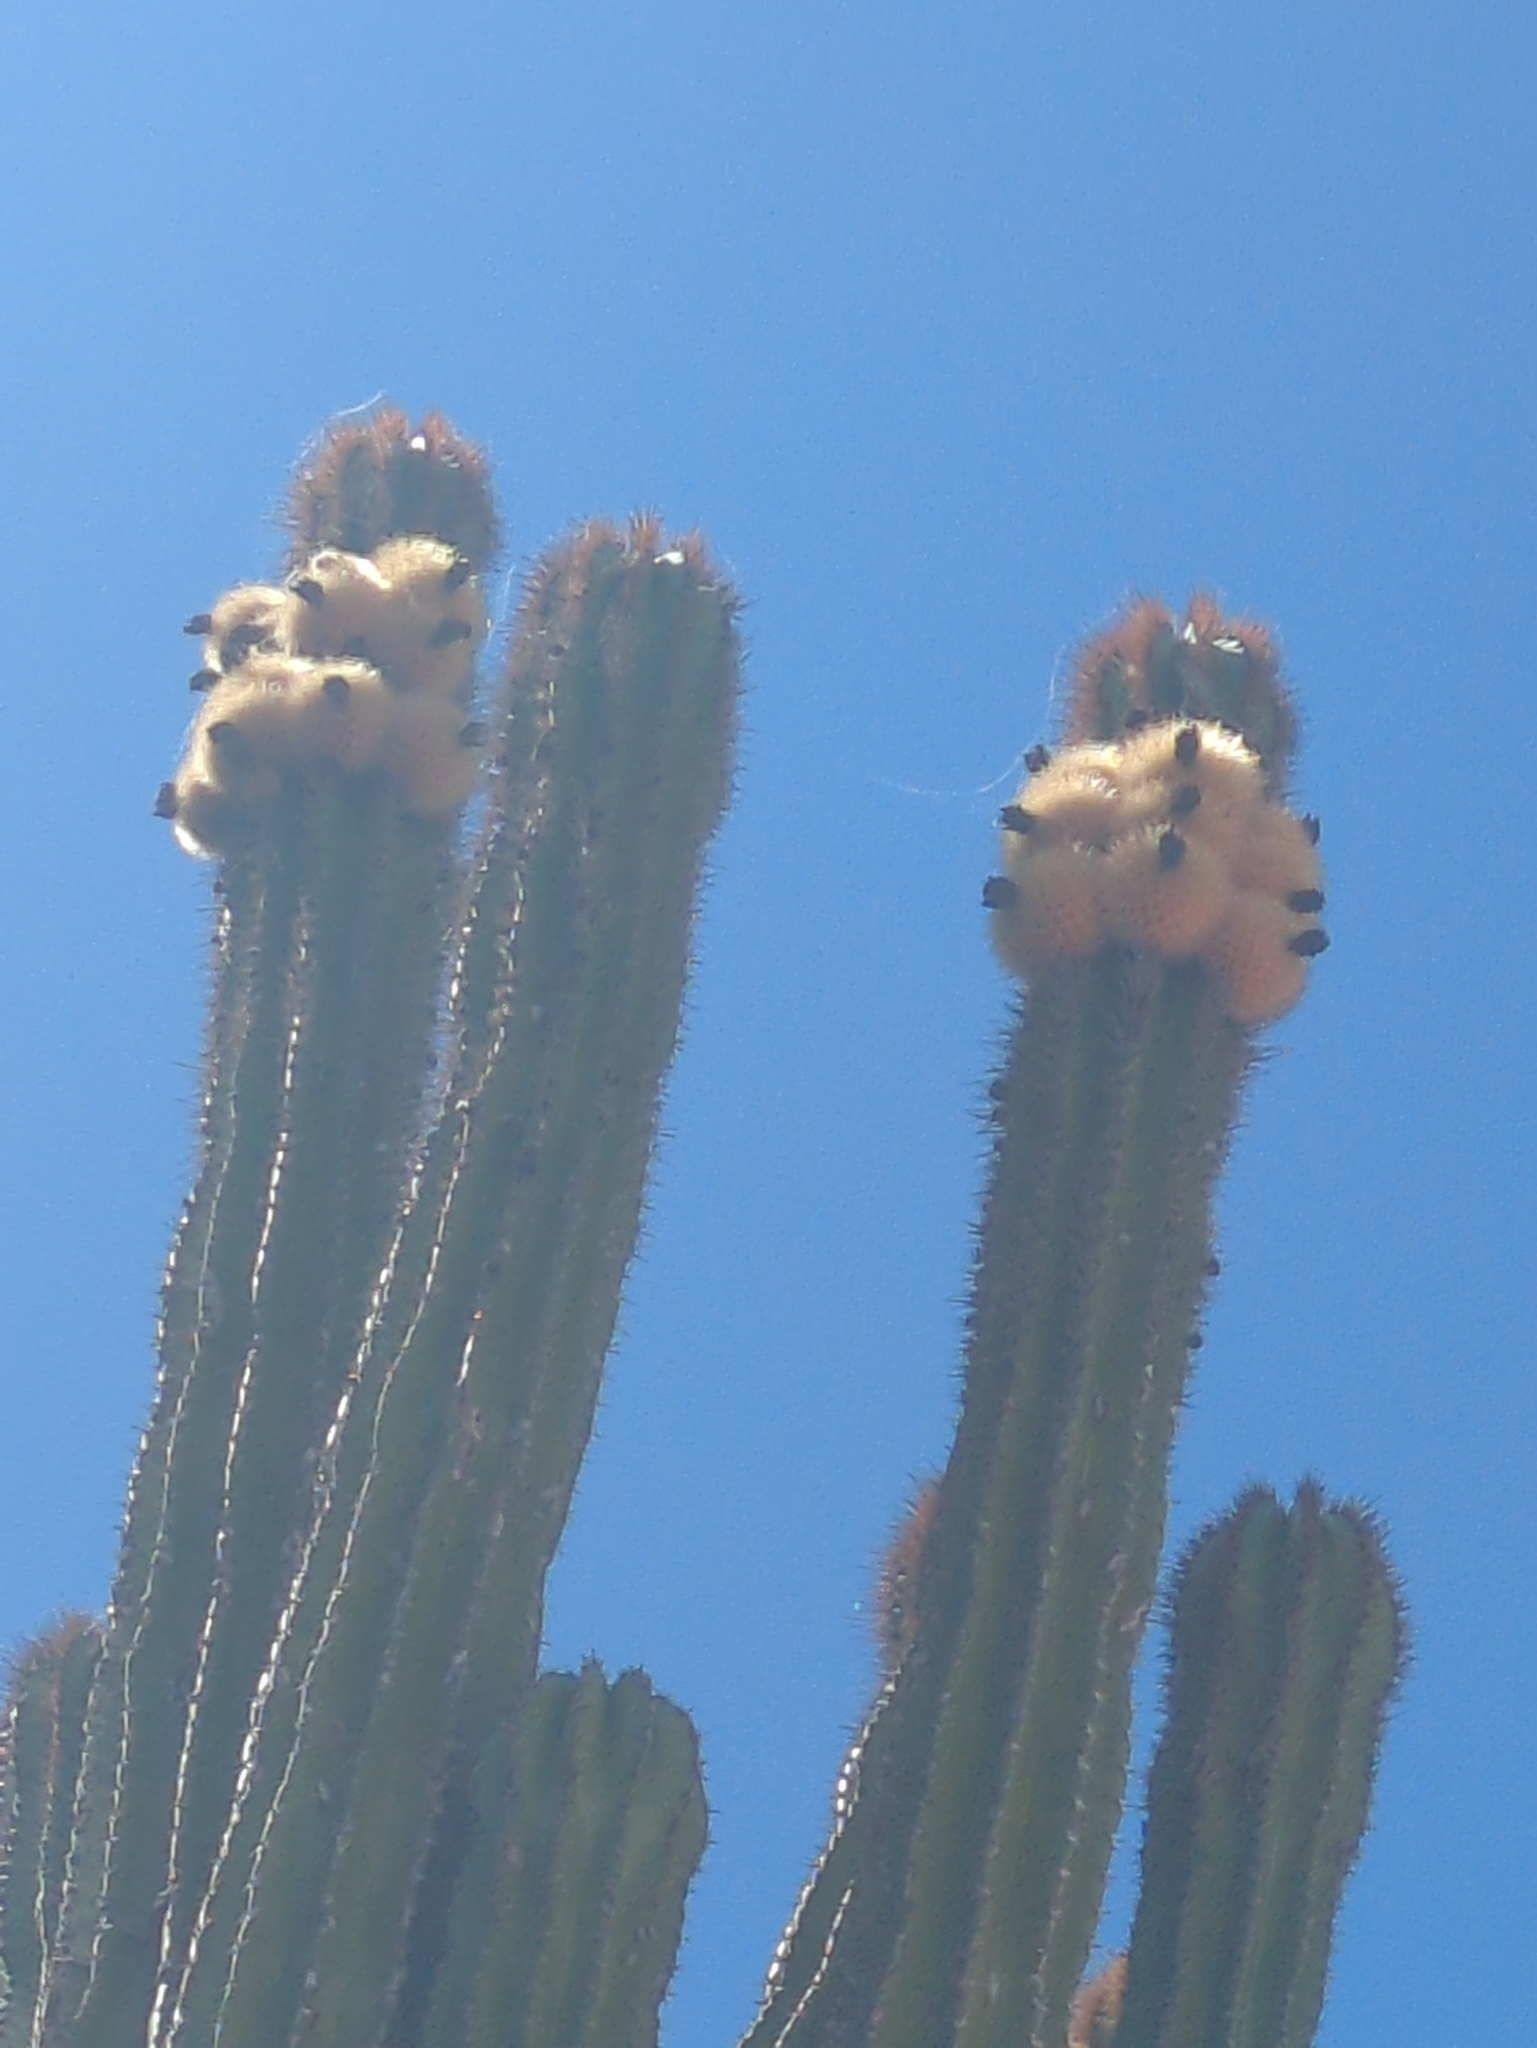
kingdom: Plantae
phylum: Tracheophyta
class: Magnoliopsida
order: Caryophyllales
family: Cactaceae
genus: Pachycereus
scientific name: Pachycereus pecten-aboriginum
